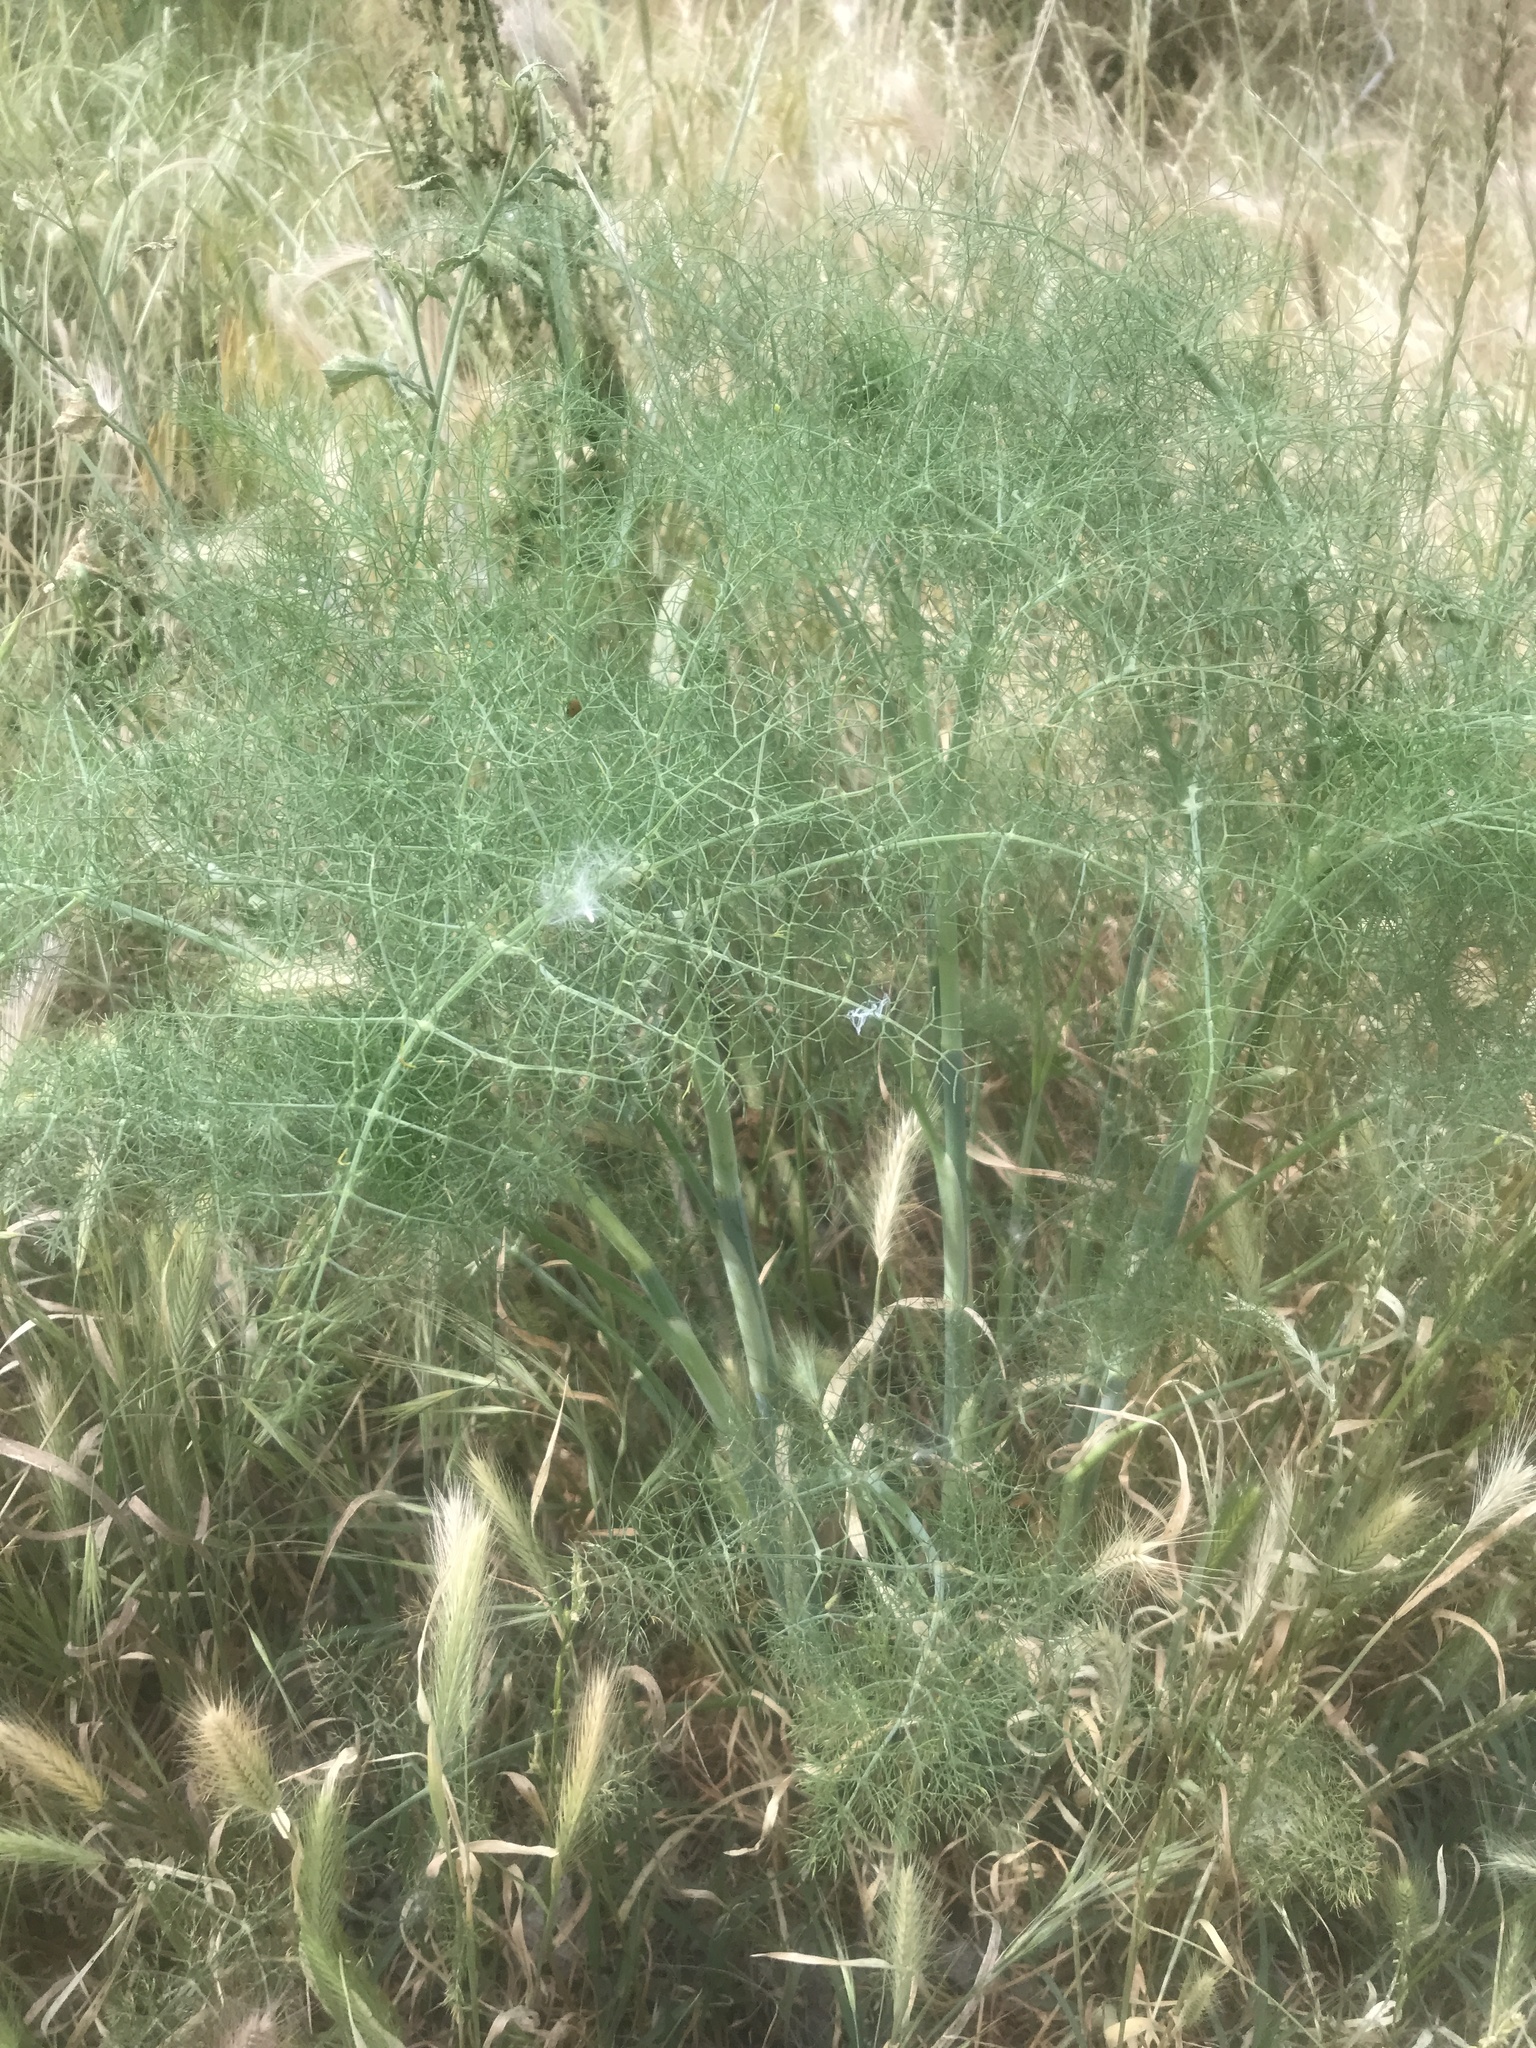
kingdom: Plantae
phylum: Tracheophyta
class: Magnoliopsida
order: Apiales
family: Apiaceae
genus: Foeniculum
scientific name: Foeniculum vulgare
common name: Fennel
